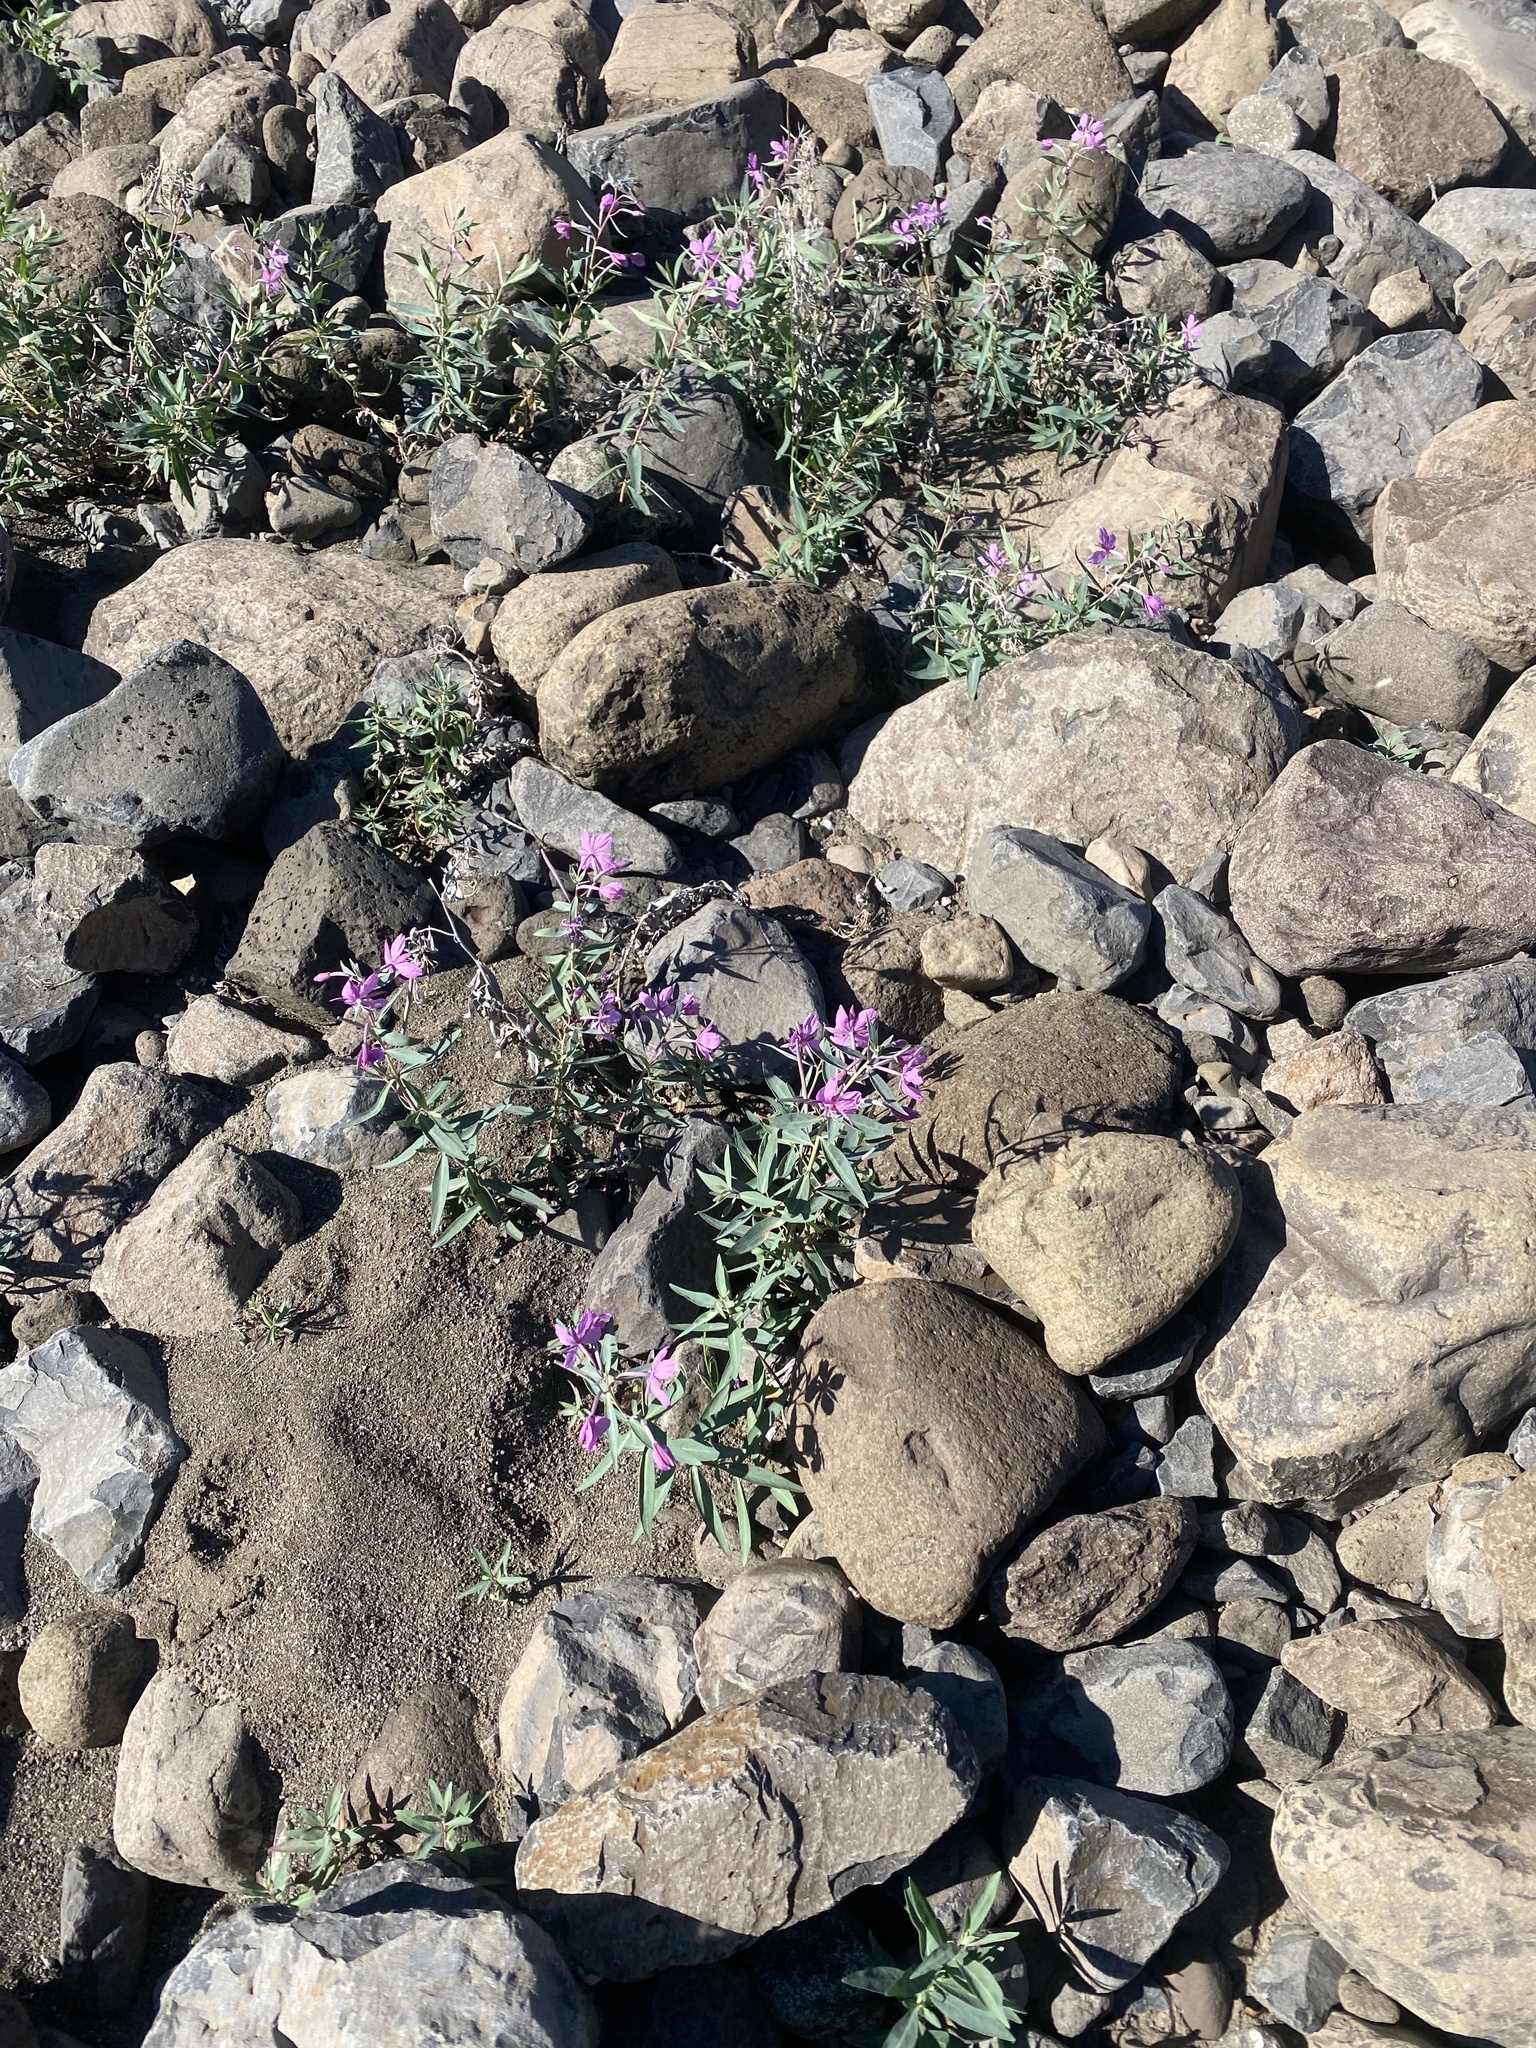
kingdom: Plantae
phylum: Tracheophyta
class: Magnoliopsida
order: Myrtales
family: Onagraceae
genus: Chamaenerion
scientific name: Chamaenerion latifolium
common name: Dwarf fireweed
